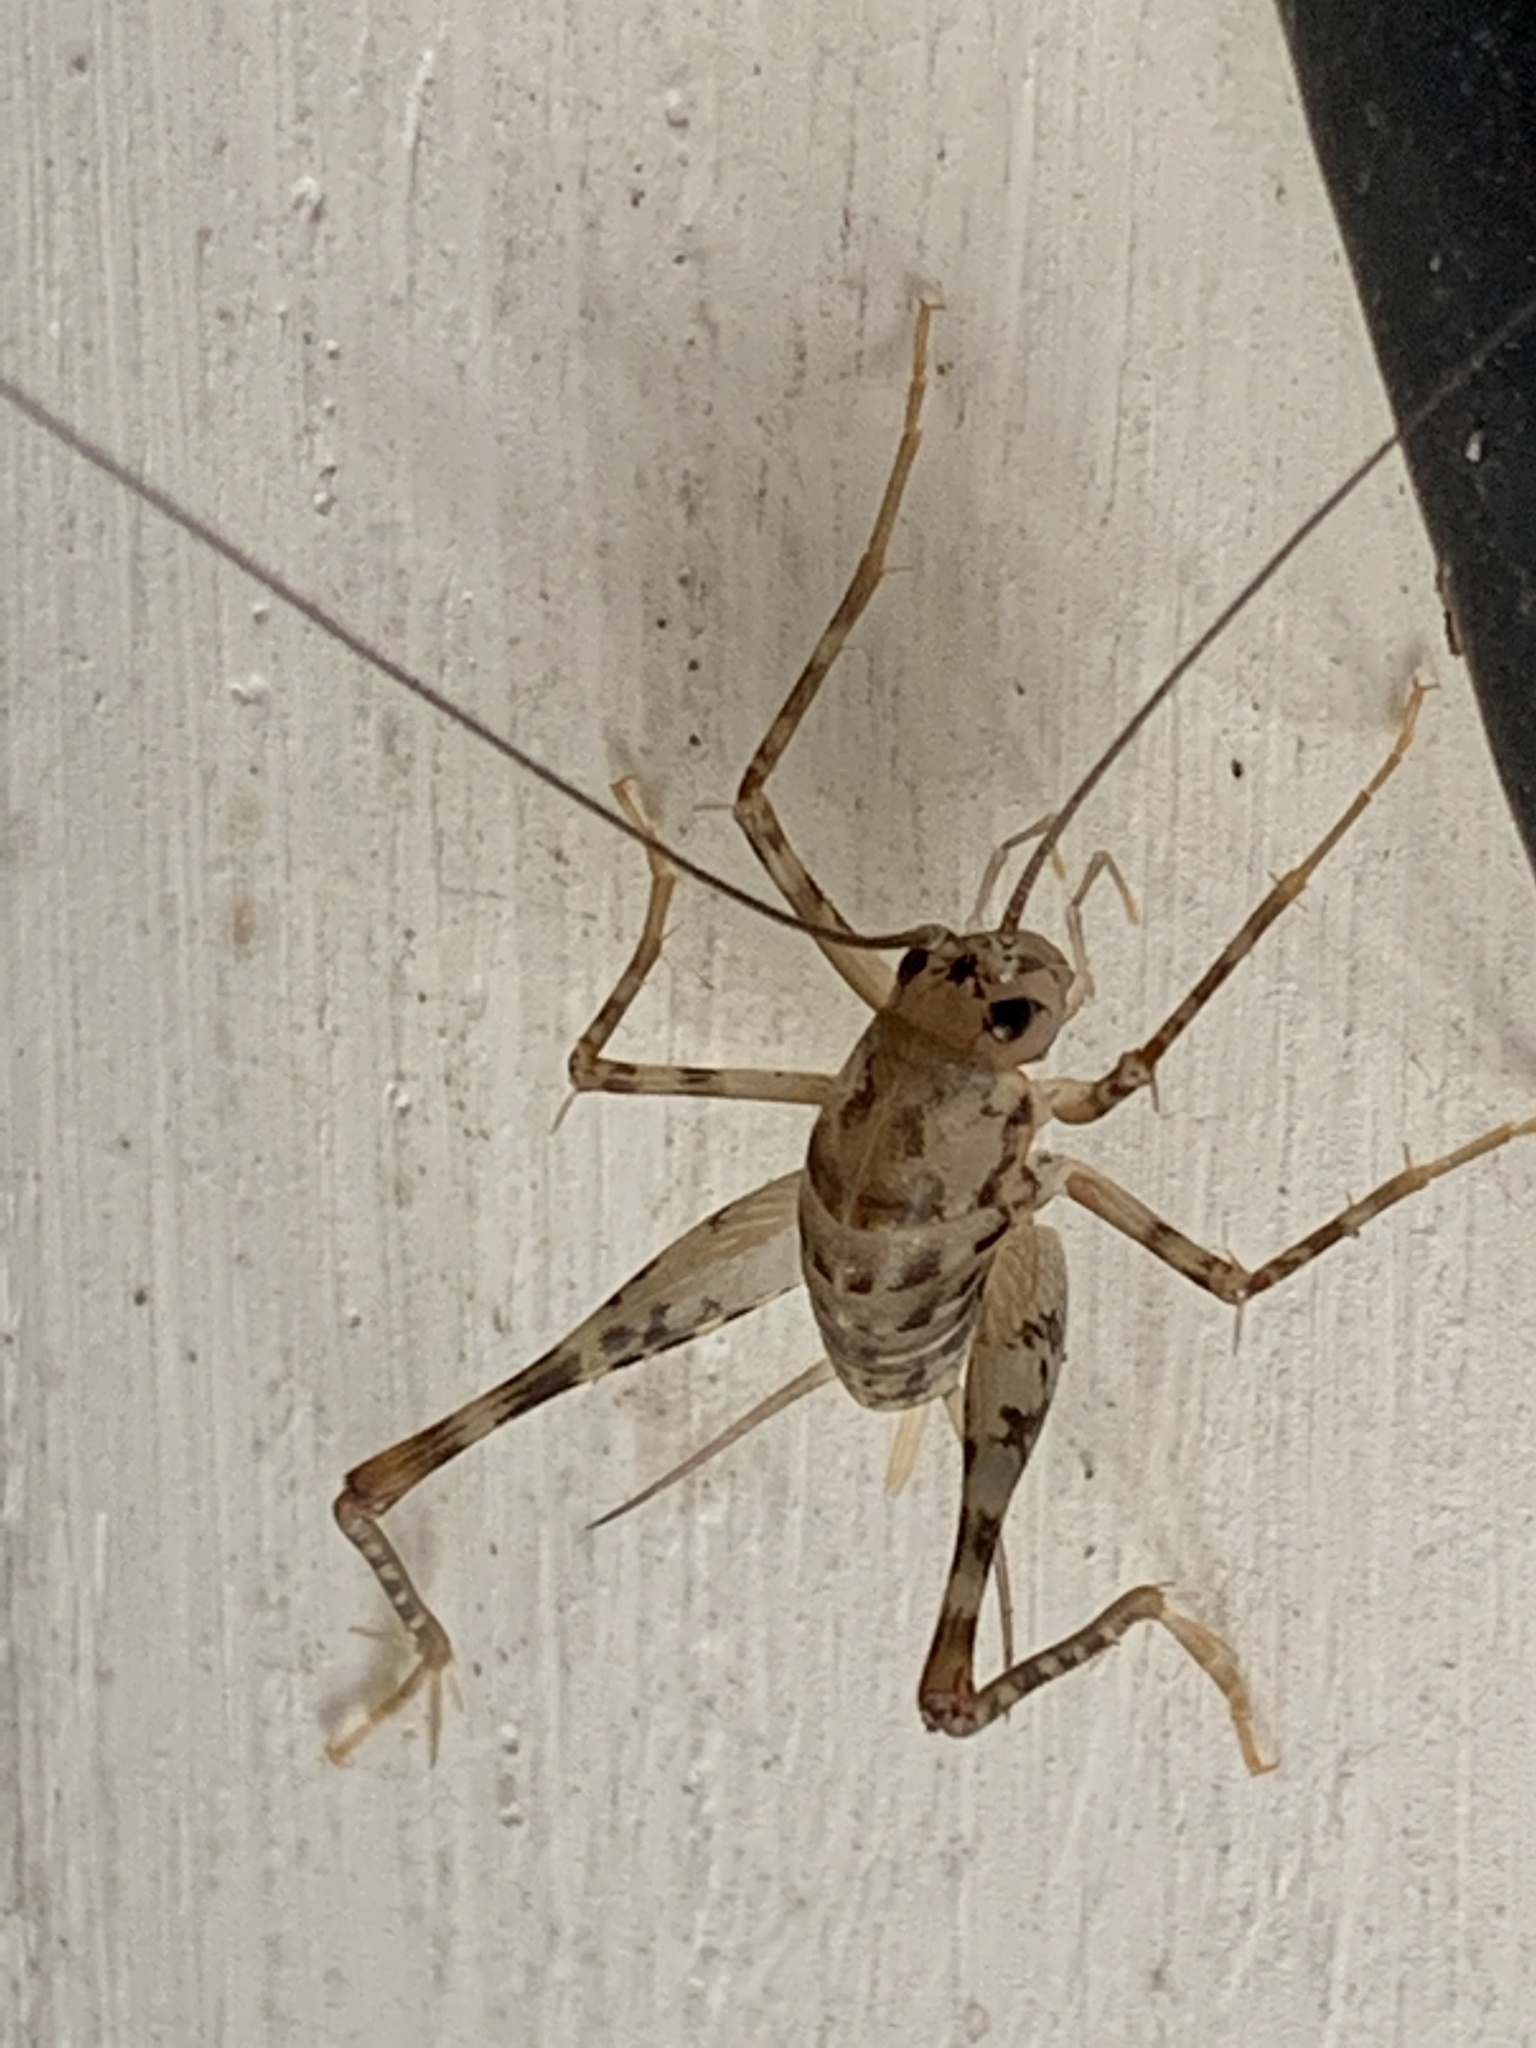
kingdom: Animalia
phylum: Arthropoda
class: Insecta
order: Orthoptera
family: Rhaphidophoridae
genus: Tachycines
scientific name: Tachycines asynamorus
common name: Greenhouse camel cricket
